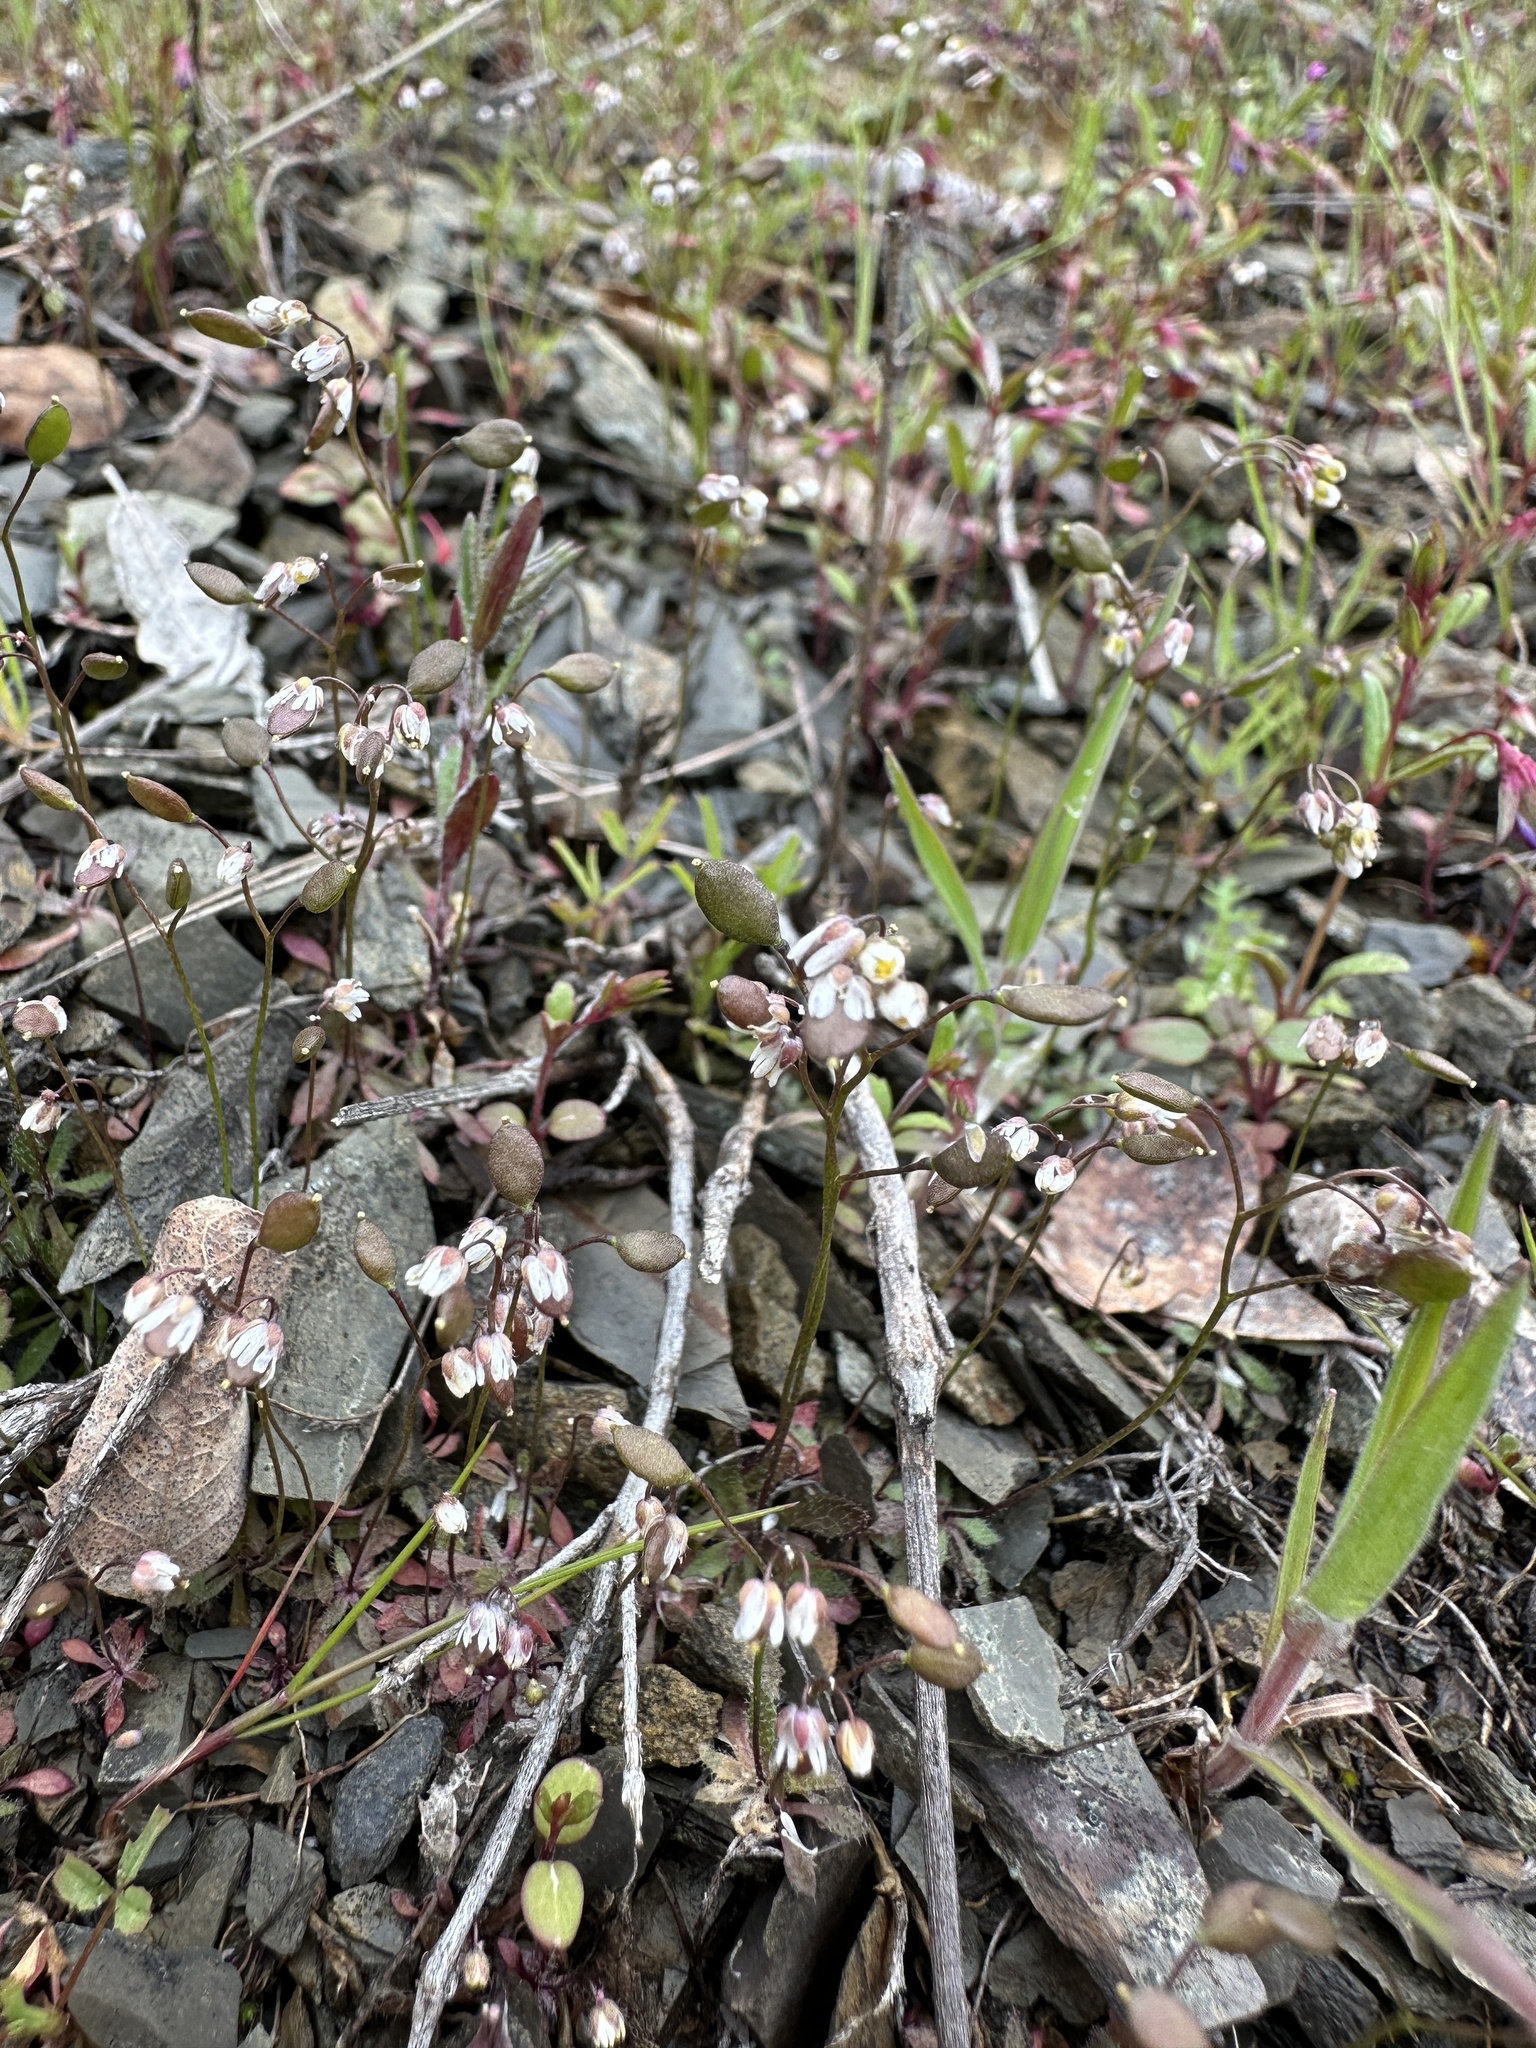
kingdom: Plantae
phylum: Tracheophyta
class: Magnoliopsida
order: Brassicales
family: Brassicaceae
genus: Draba
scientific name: Draba verna
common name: Spring draba
